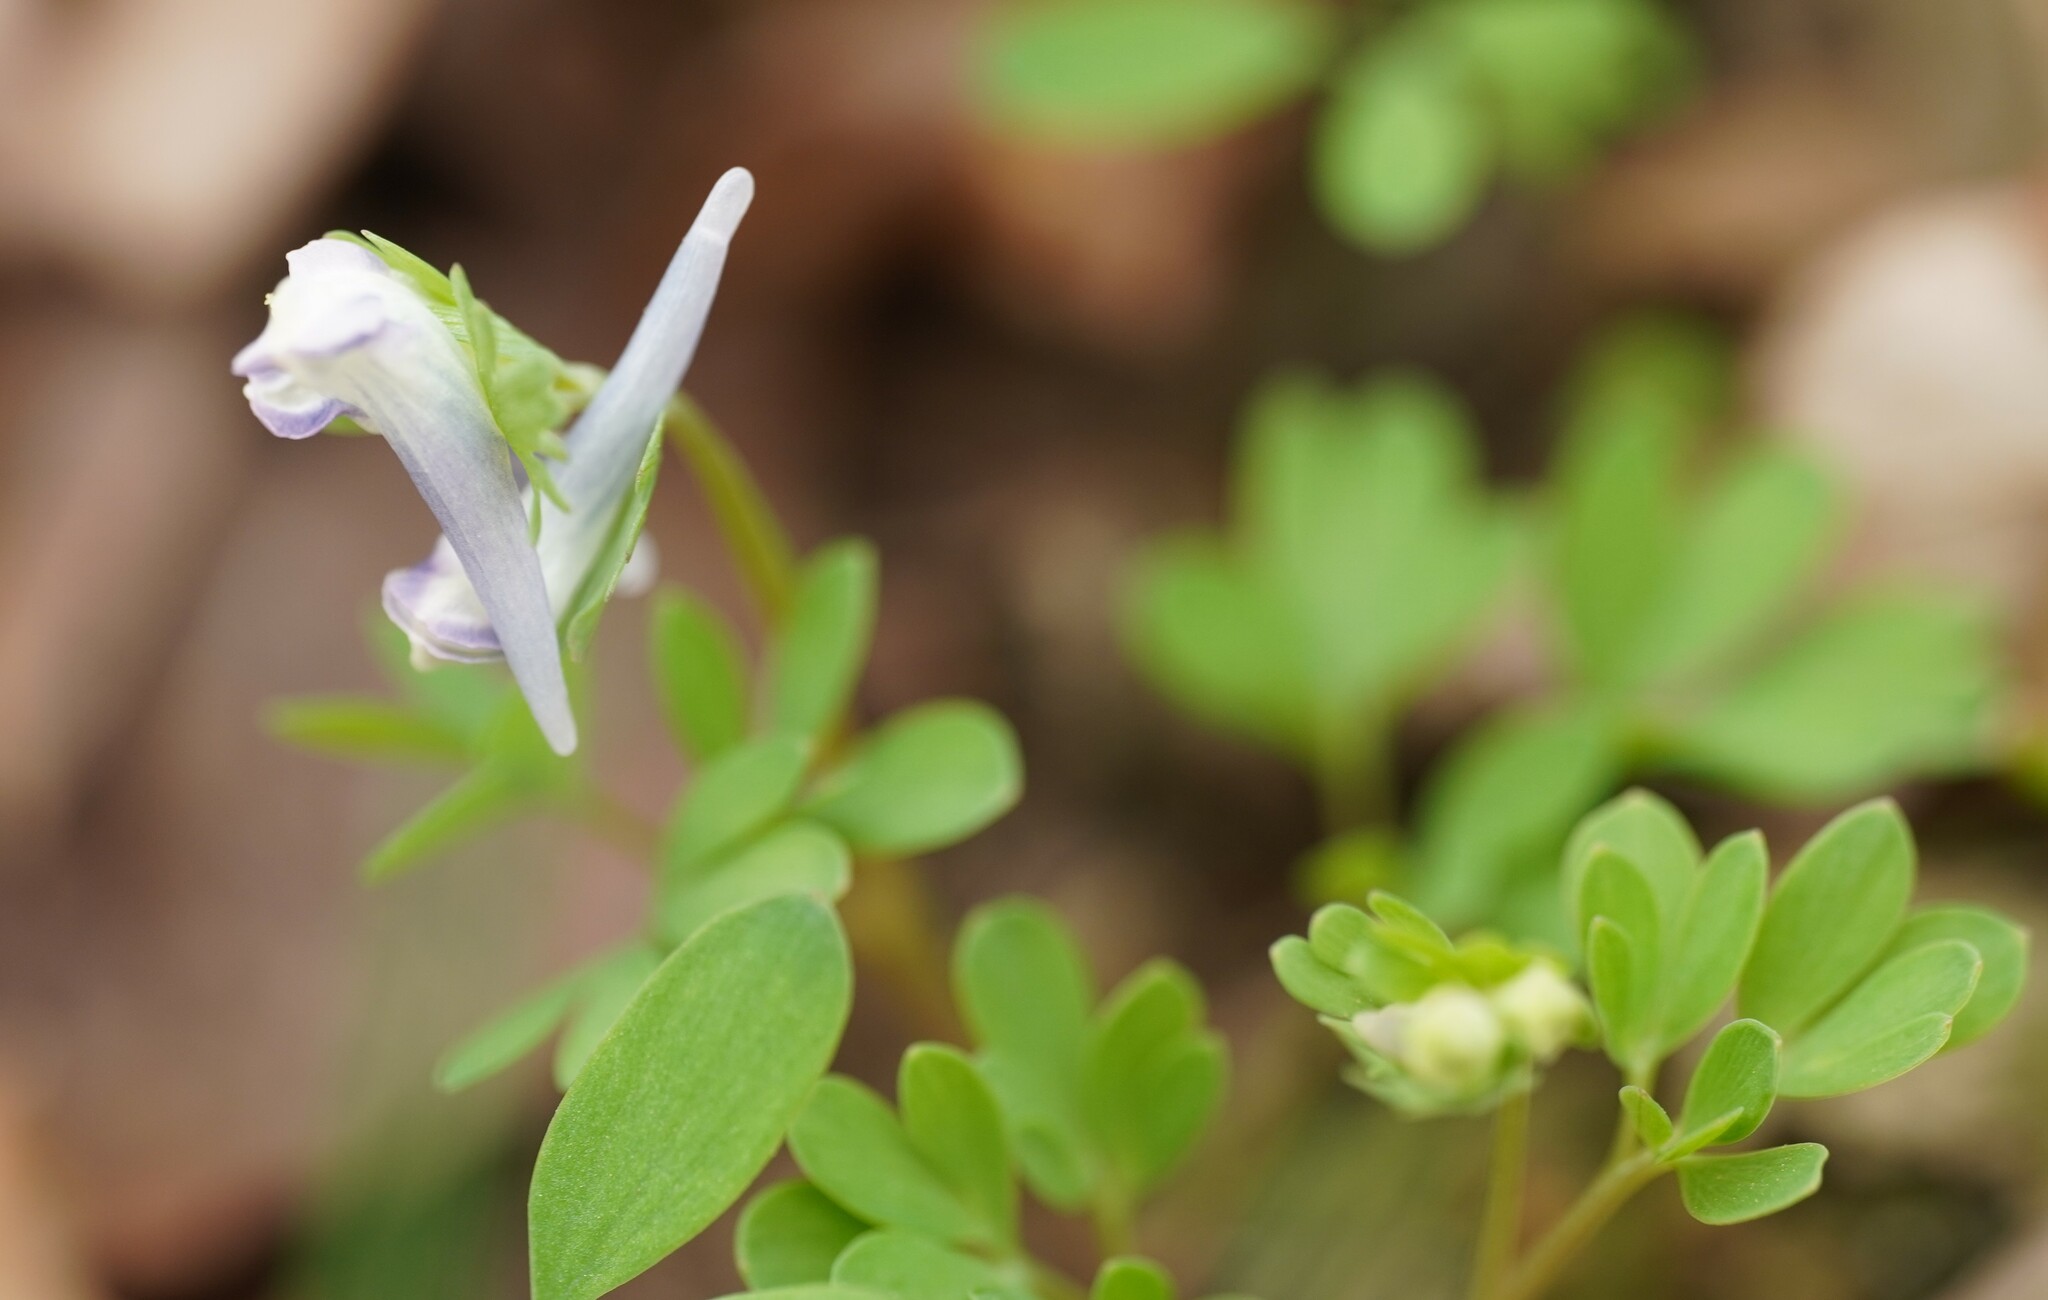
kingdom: Plantae
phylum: Tracheophyta
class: Magnoliopsida
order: Ranunculales
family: Papaveraceae
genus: Corydalis
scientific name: Corydalis pumila
